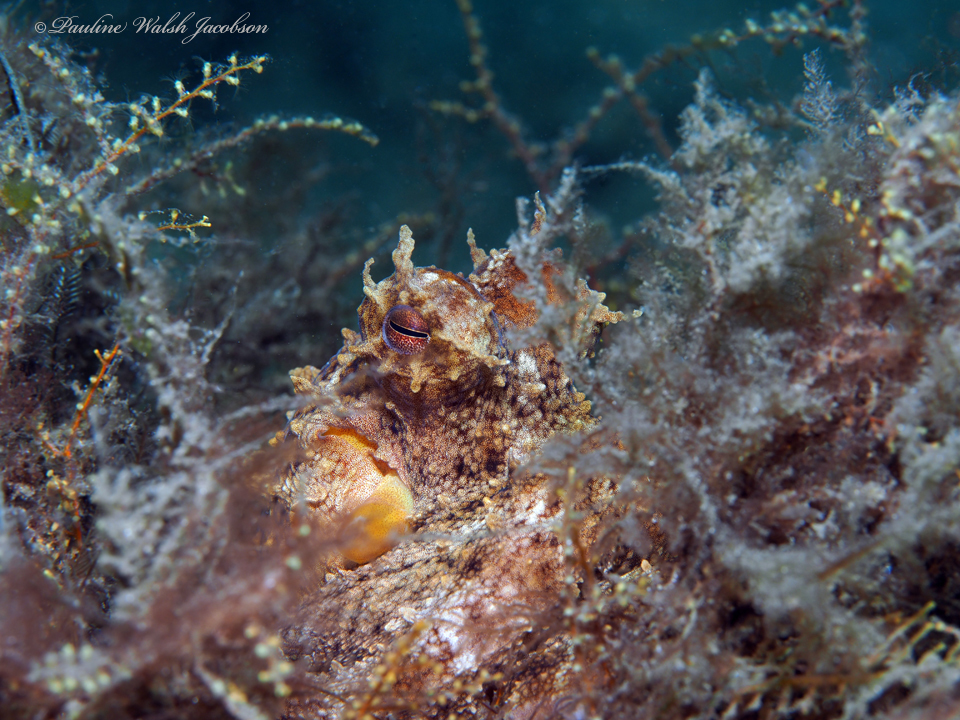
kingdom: Animalia
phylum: Mollusca
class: Cephalopoda
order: Octopoda
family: Octopodidae
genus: Octopus
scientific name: Octopus americanus
